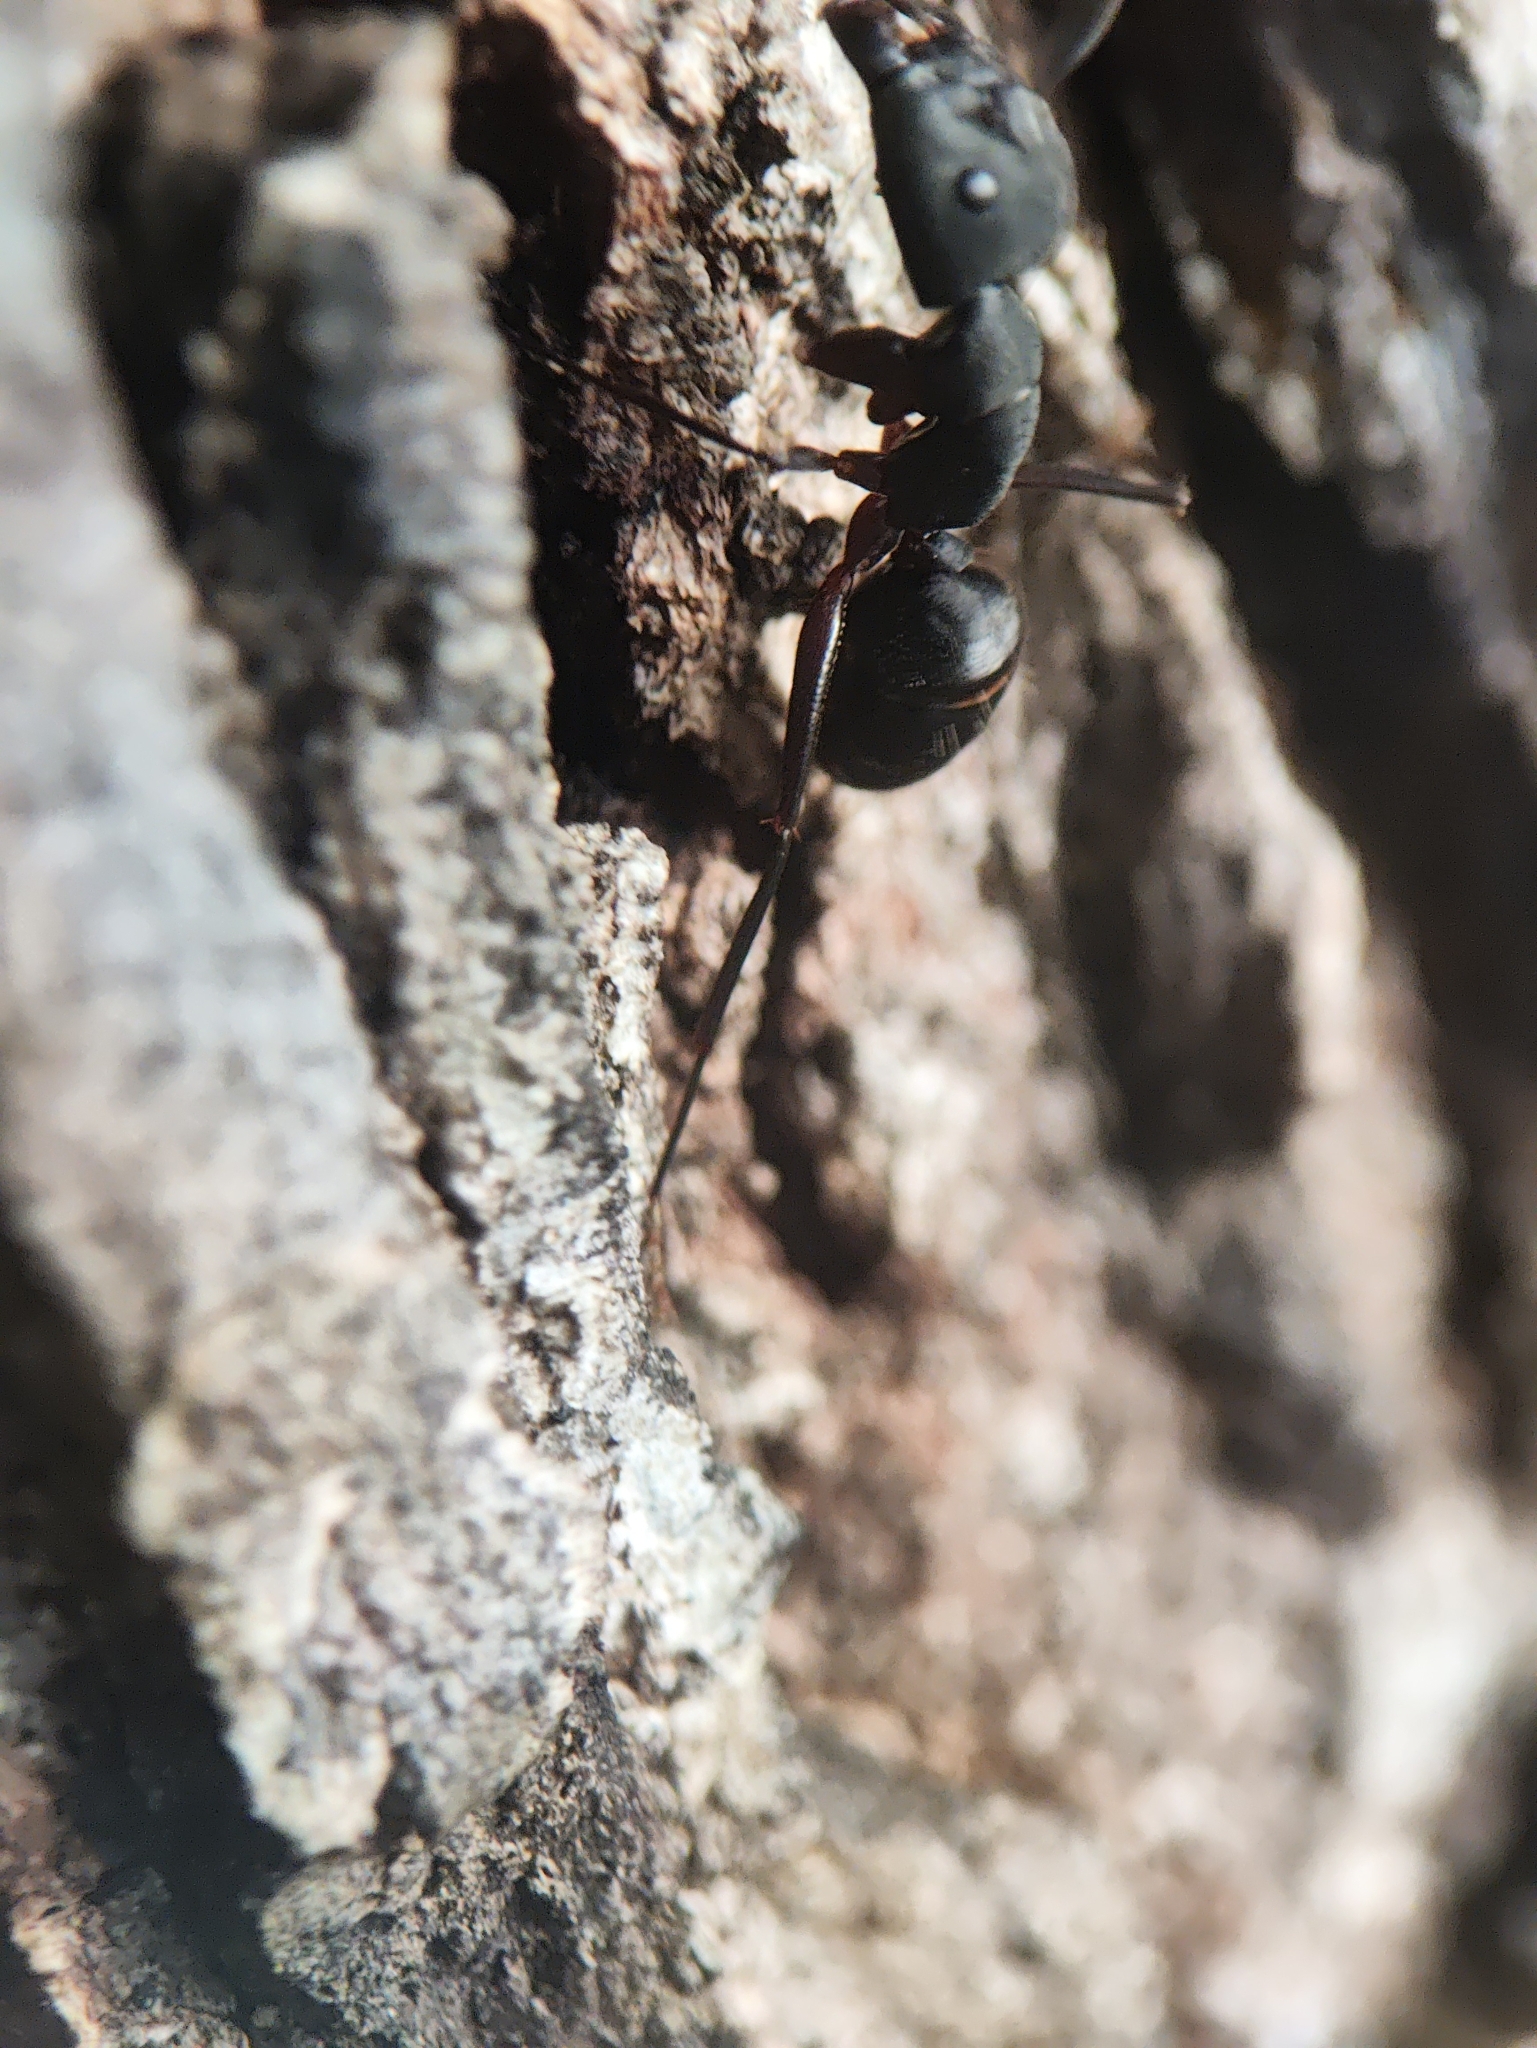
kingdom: Animalia
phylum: Arthropoda
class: Insecta
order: Hymenoptera
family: Formicidae
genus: Camponotus
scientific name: Camponotus compressus
